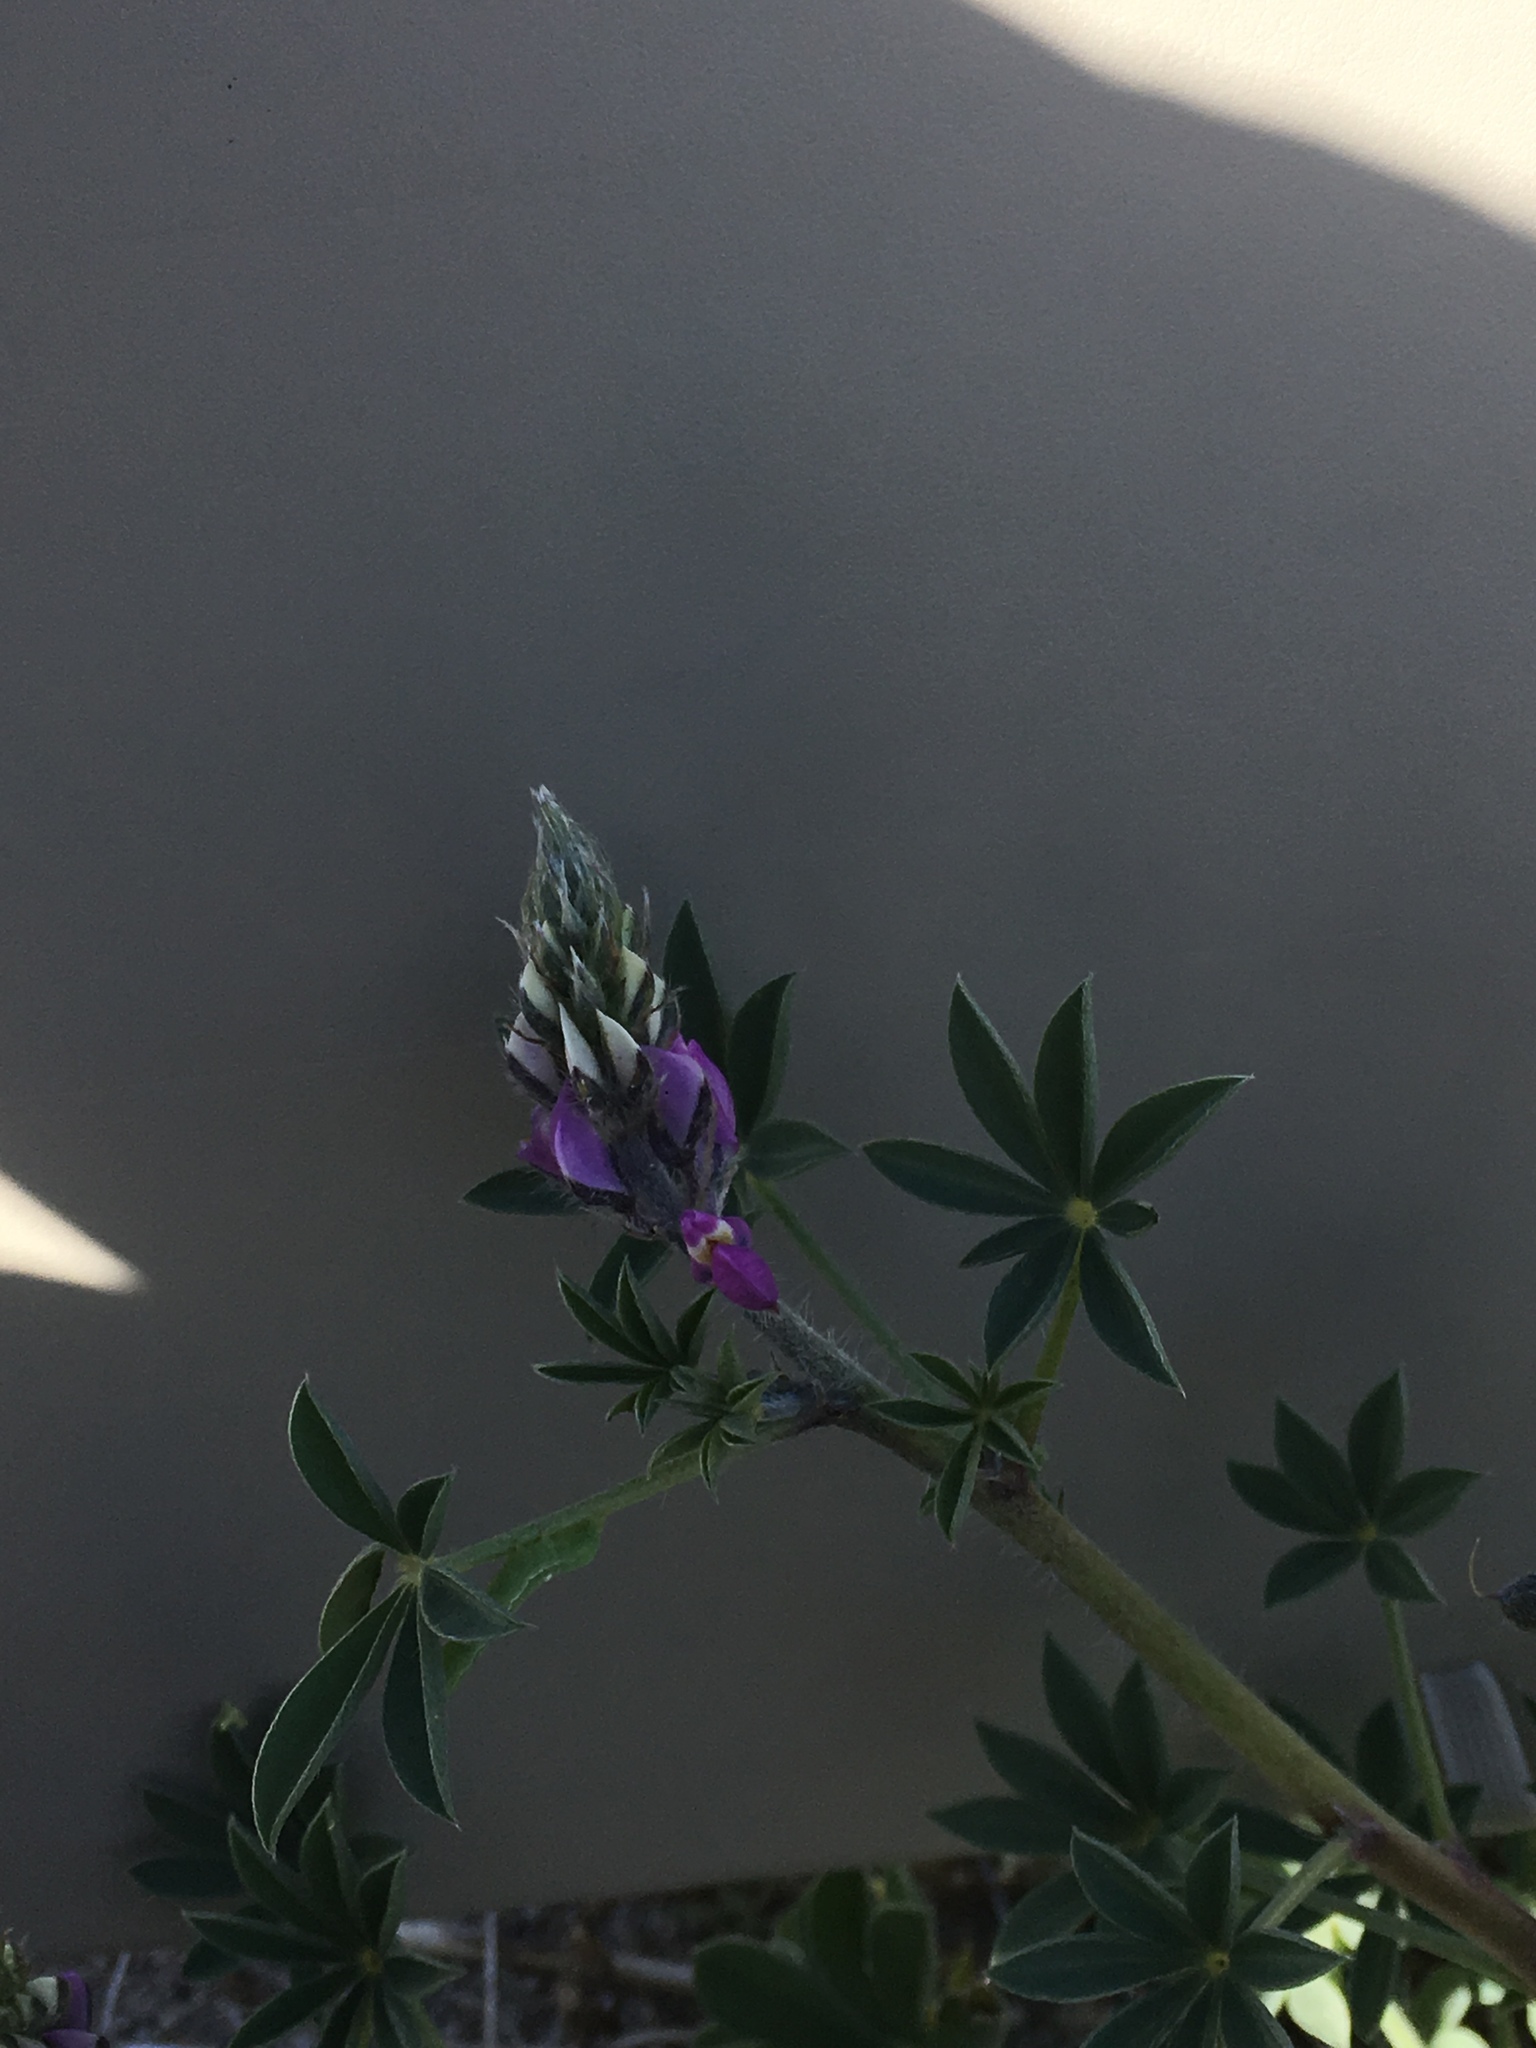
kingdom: Plantae
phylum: Tracheophyta
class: Magnoliopsida
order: Fabales
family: Fabaceae
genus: Lupinus
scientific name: Lupinus arizonicus
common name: Arizona lupine
